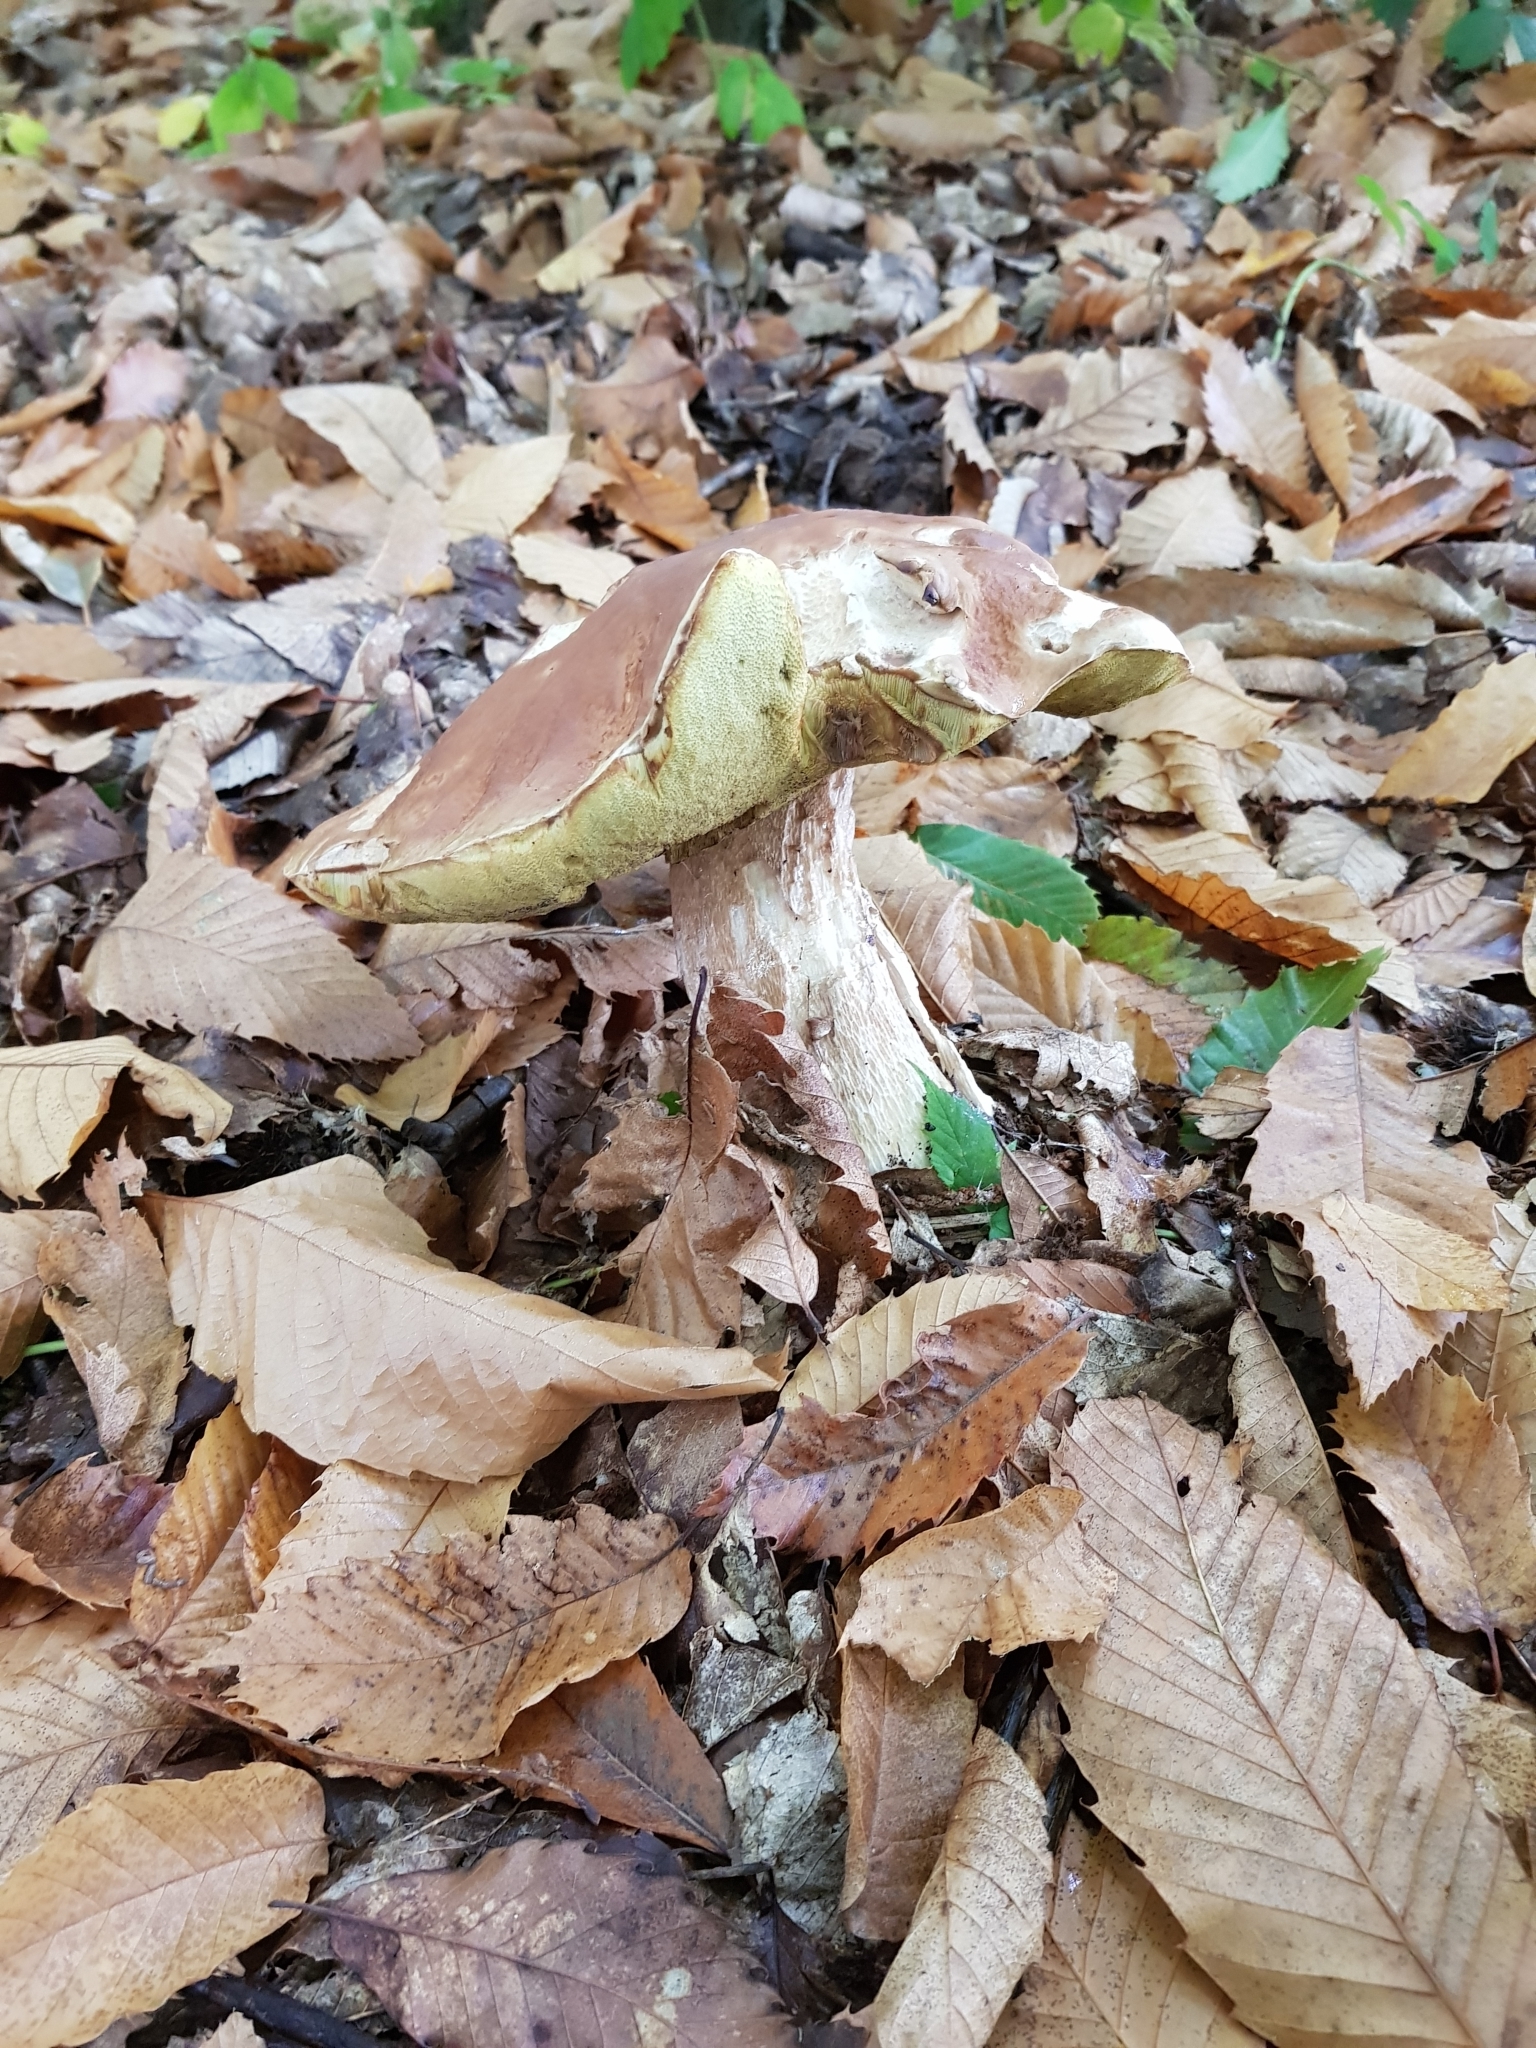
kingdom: Fungi
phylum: Basidiomycota
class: Agaricomycetes
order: Boletales
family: Boletaceae
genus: Boletus
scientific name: Boletus edulis
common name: Cep
